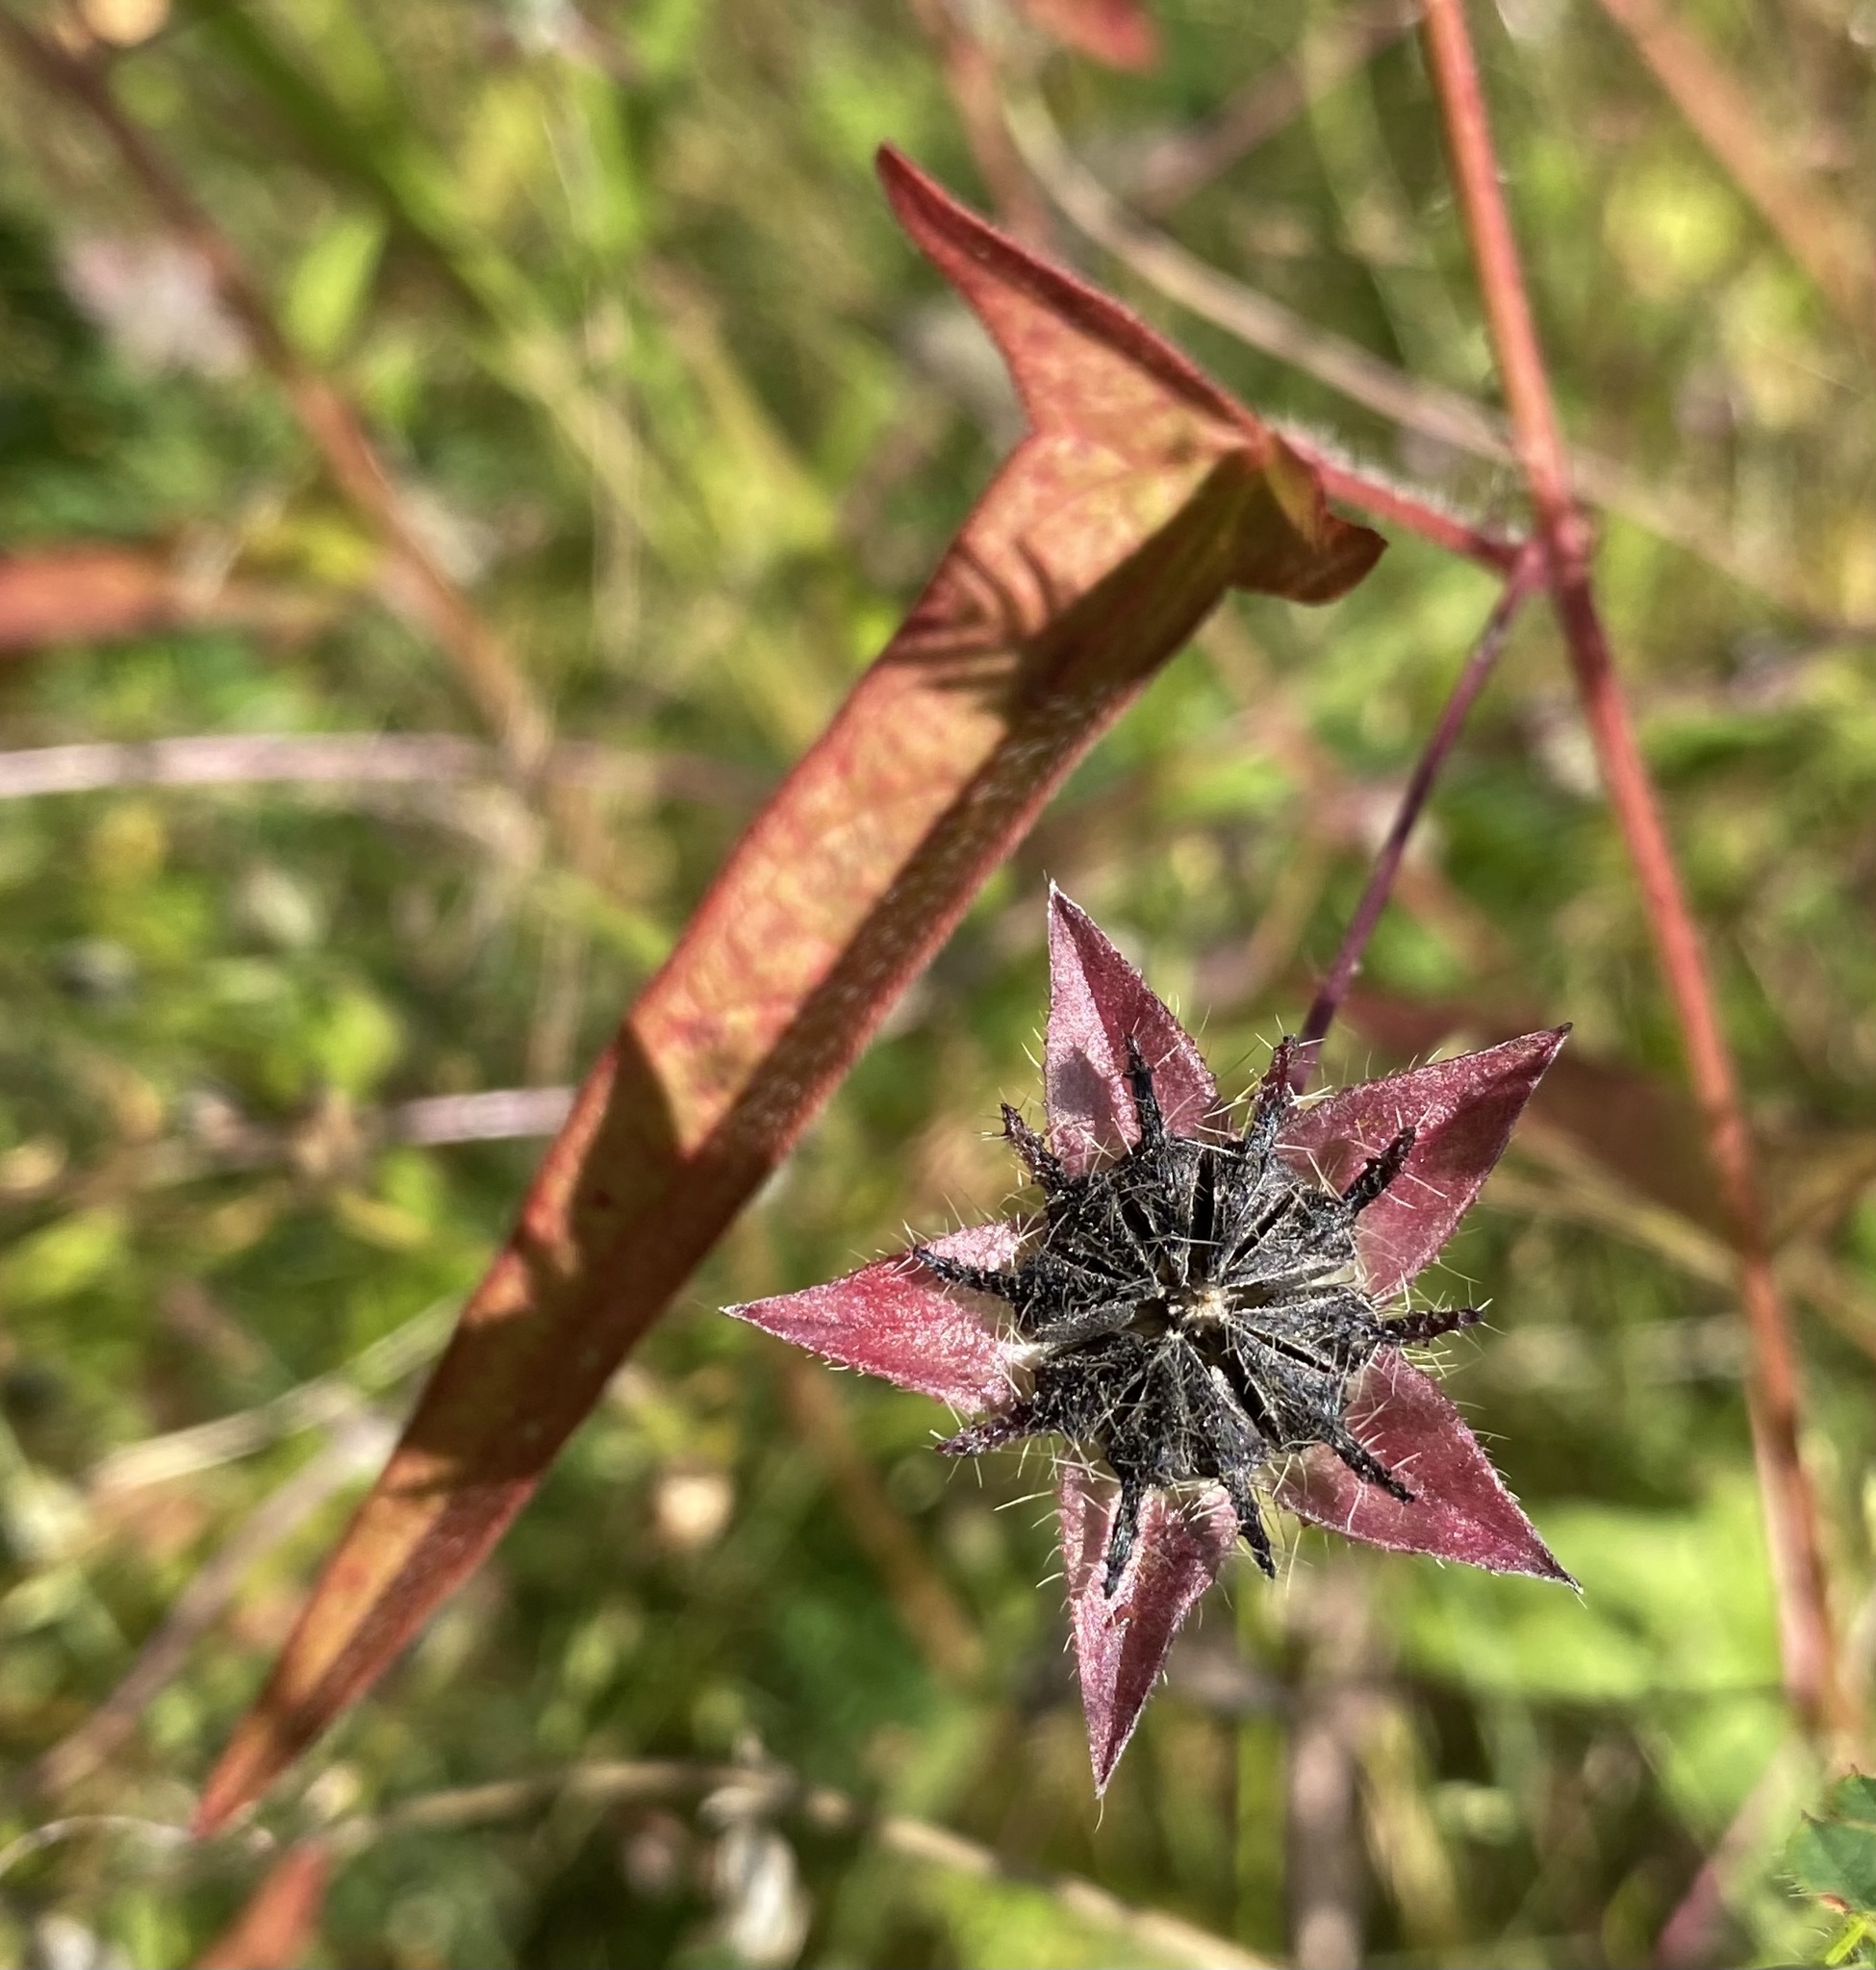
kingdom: Plantae
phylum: Tracheophyta
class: Magnoliopsida
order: Malvales
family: Malvaceae
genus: Anoda
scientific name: Anoda cristata
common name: Spurred anoda
